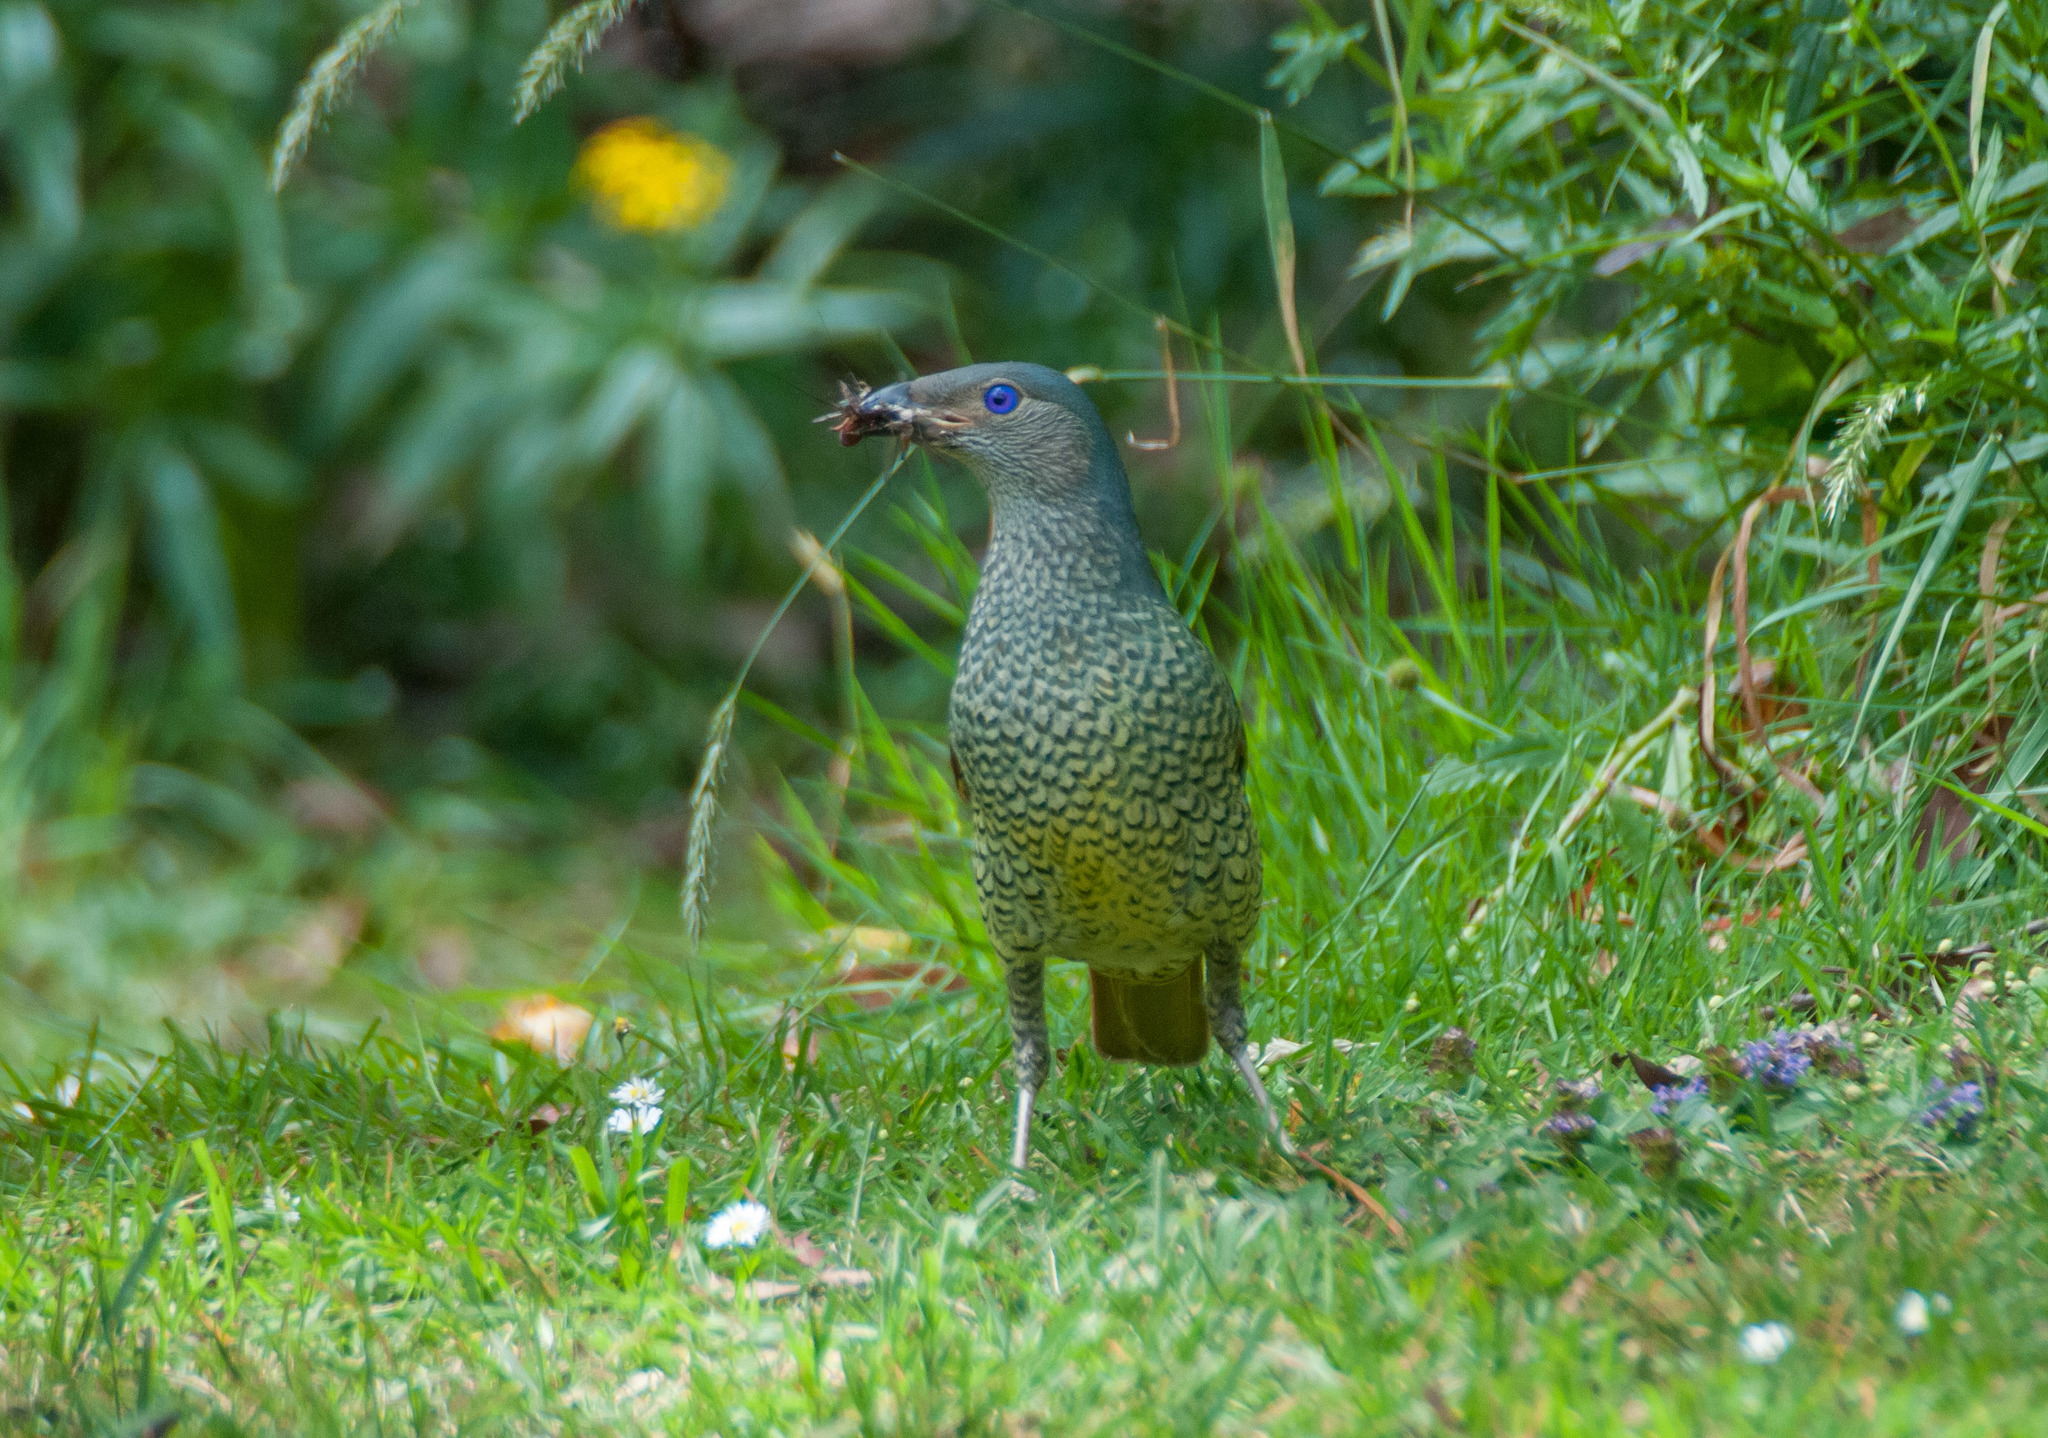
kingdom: Animalia
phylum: Chordata
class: Aves
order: Passeriformes
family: Ptilonorhynchidae
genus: Ptilonorhynchus
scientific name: Ptilonorhynchus violaceus
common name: Satin bowerbird
